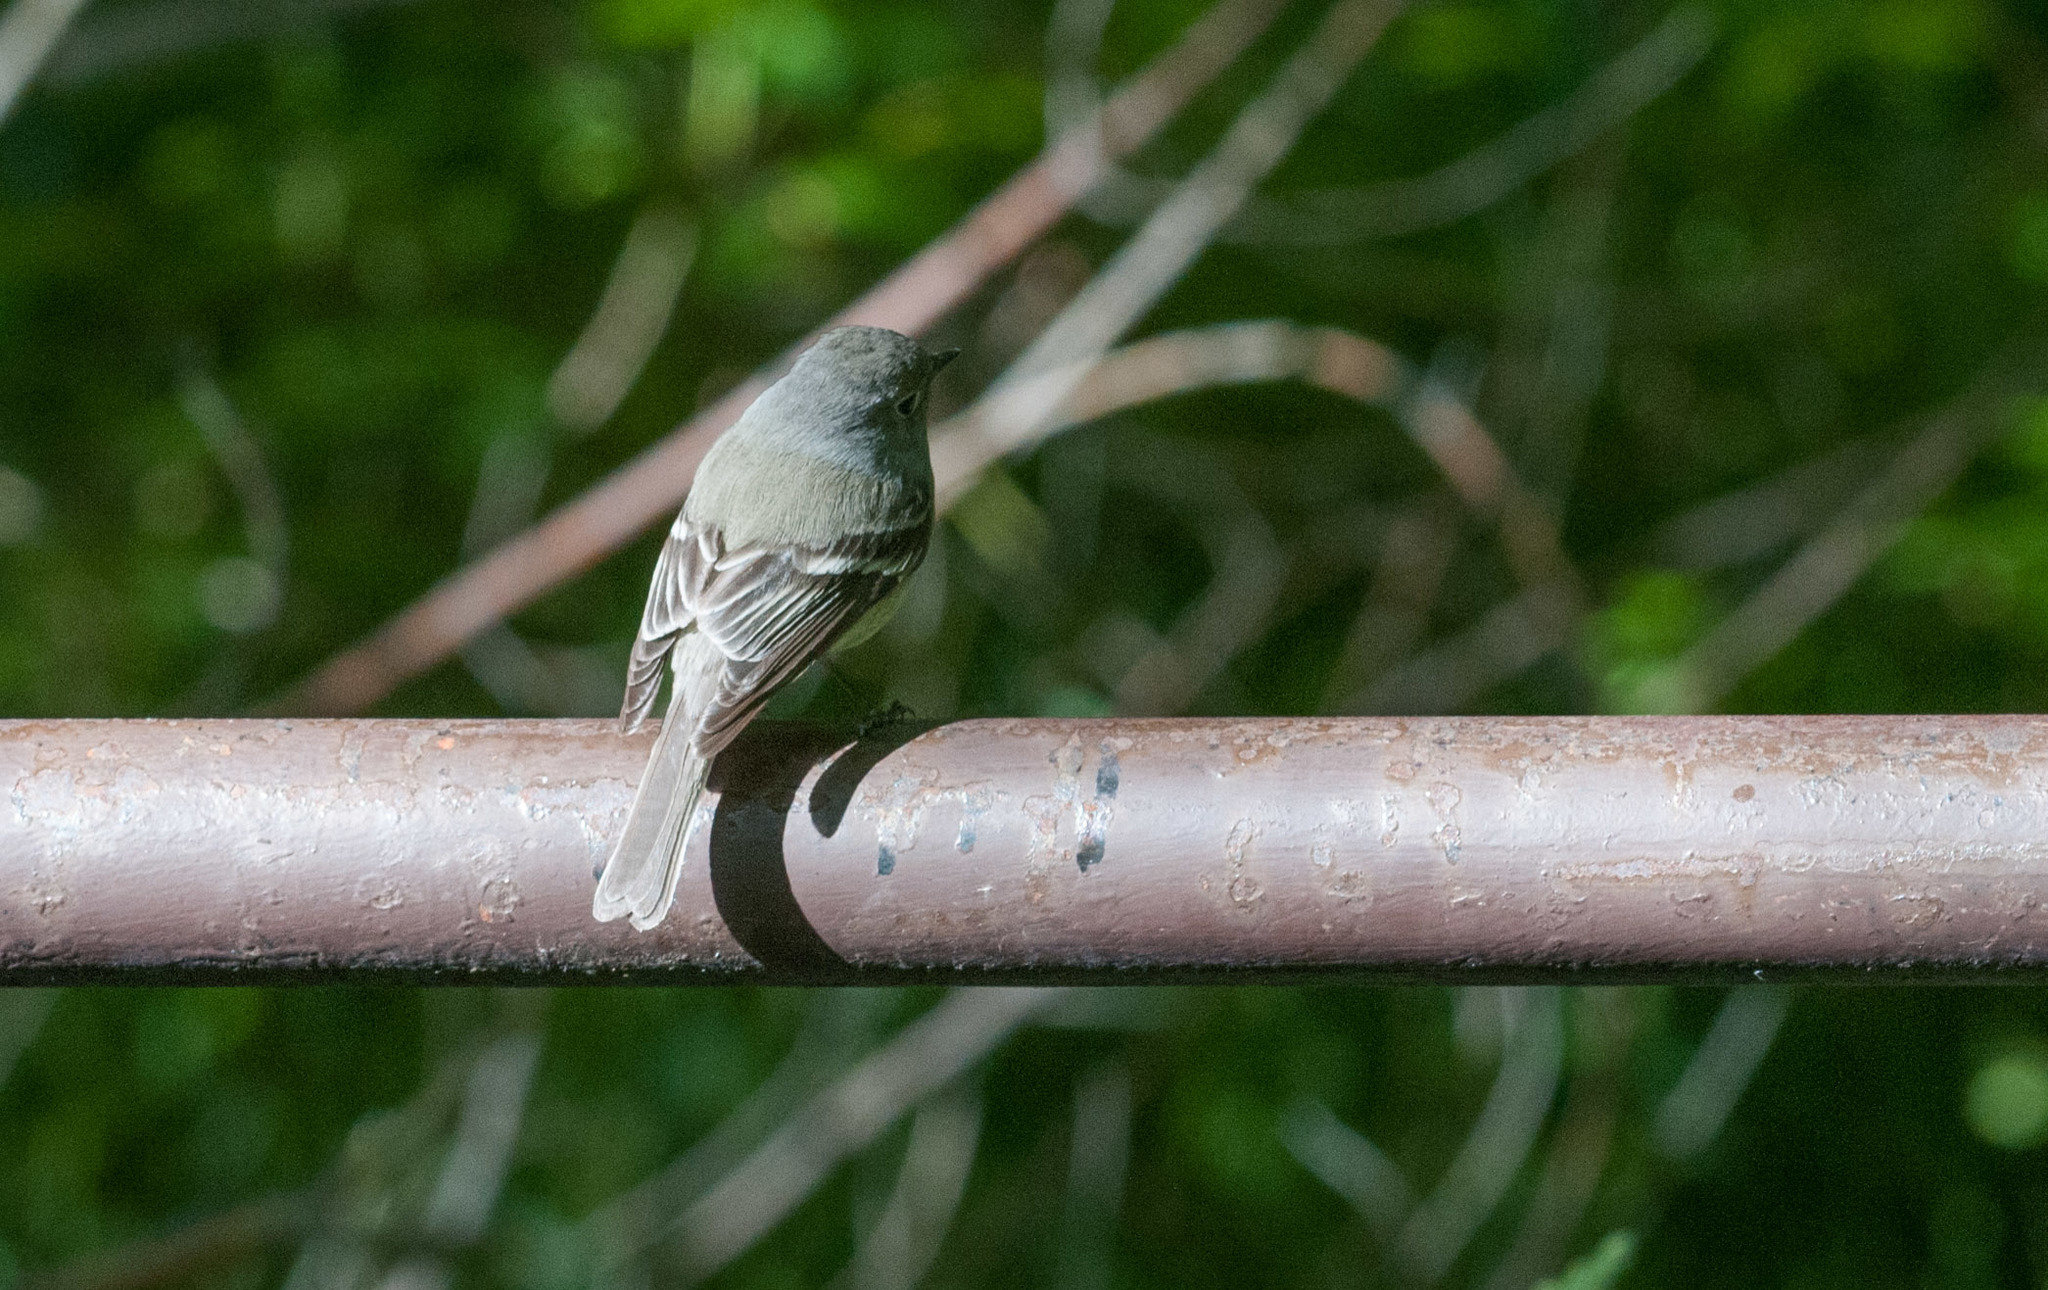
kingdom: Animalia
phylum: Chordata
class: Aves
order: Passeriformes
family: Tyrannidae
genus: Empidonax
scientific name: Empidonax hammondii
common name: Hammond's flycatcher
